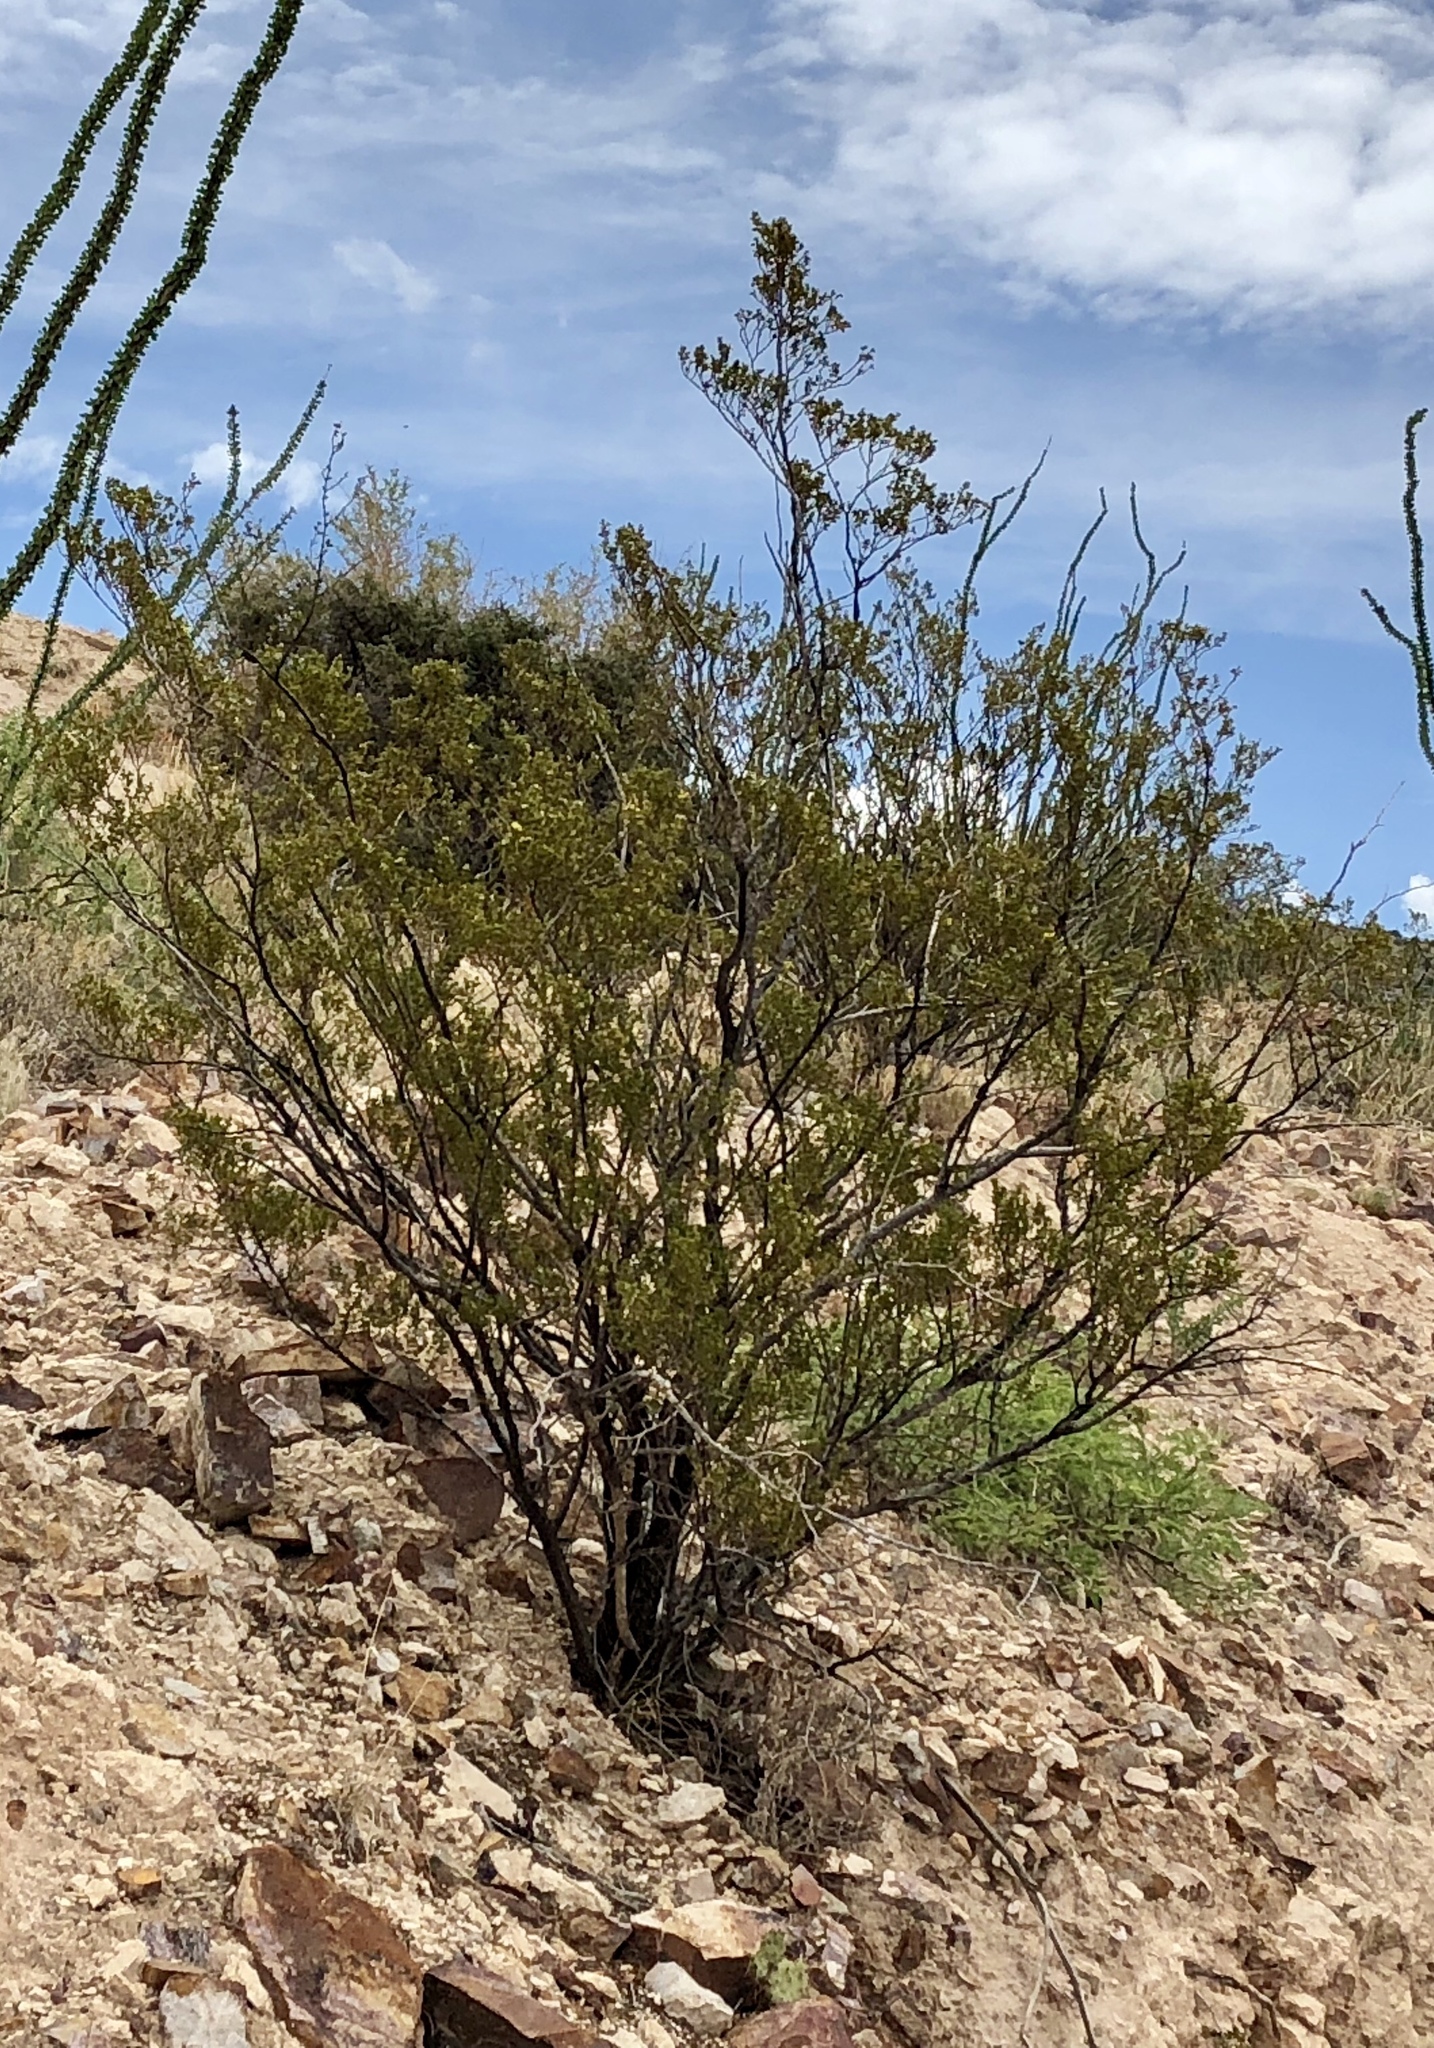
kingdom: Plantae
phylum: Tracheophyta
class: Magnoliopsida
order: Zygophyllales
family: Zygophyllaceae
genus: Larrea
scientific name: Larrea tridentata
